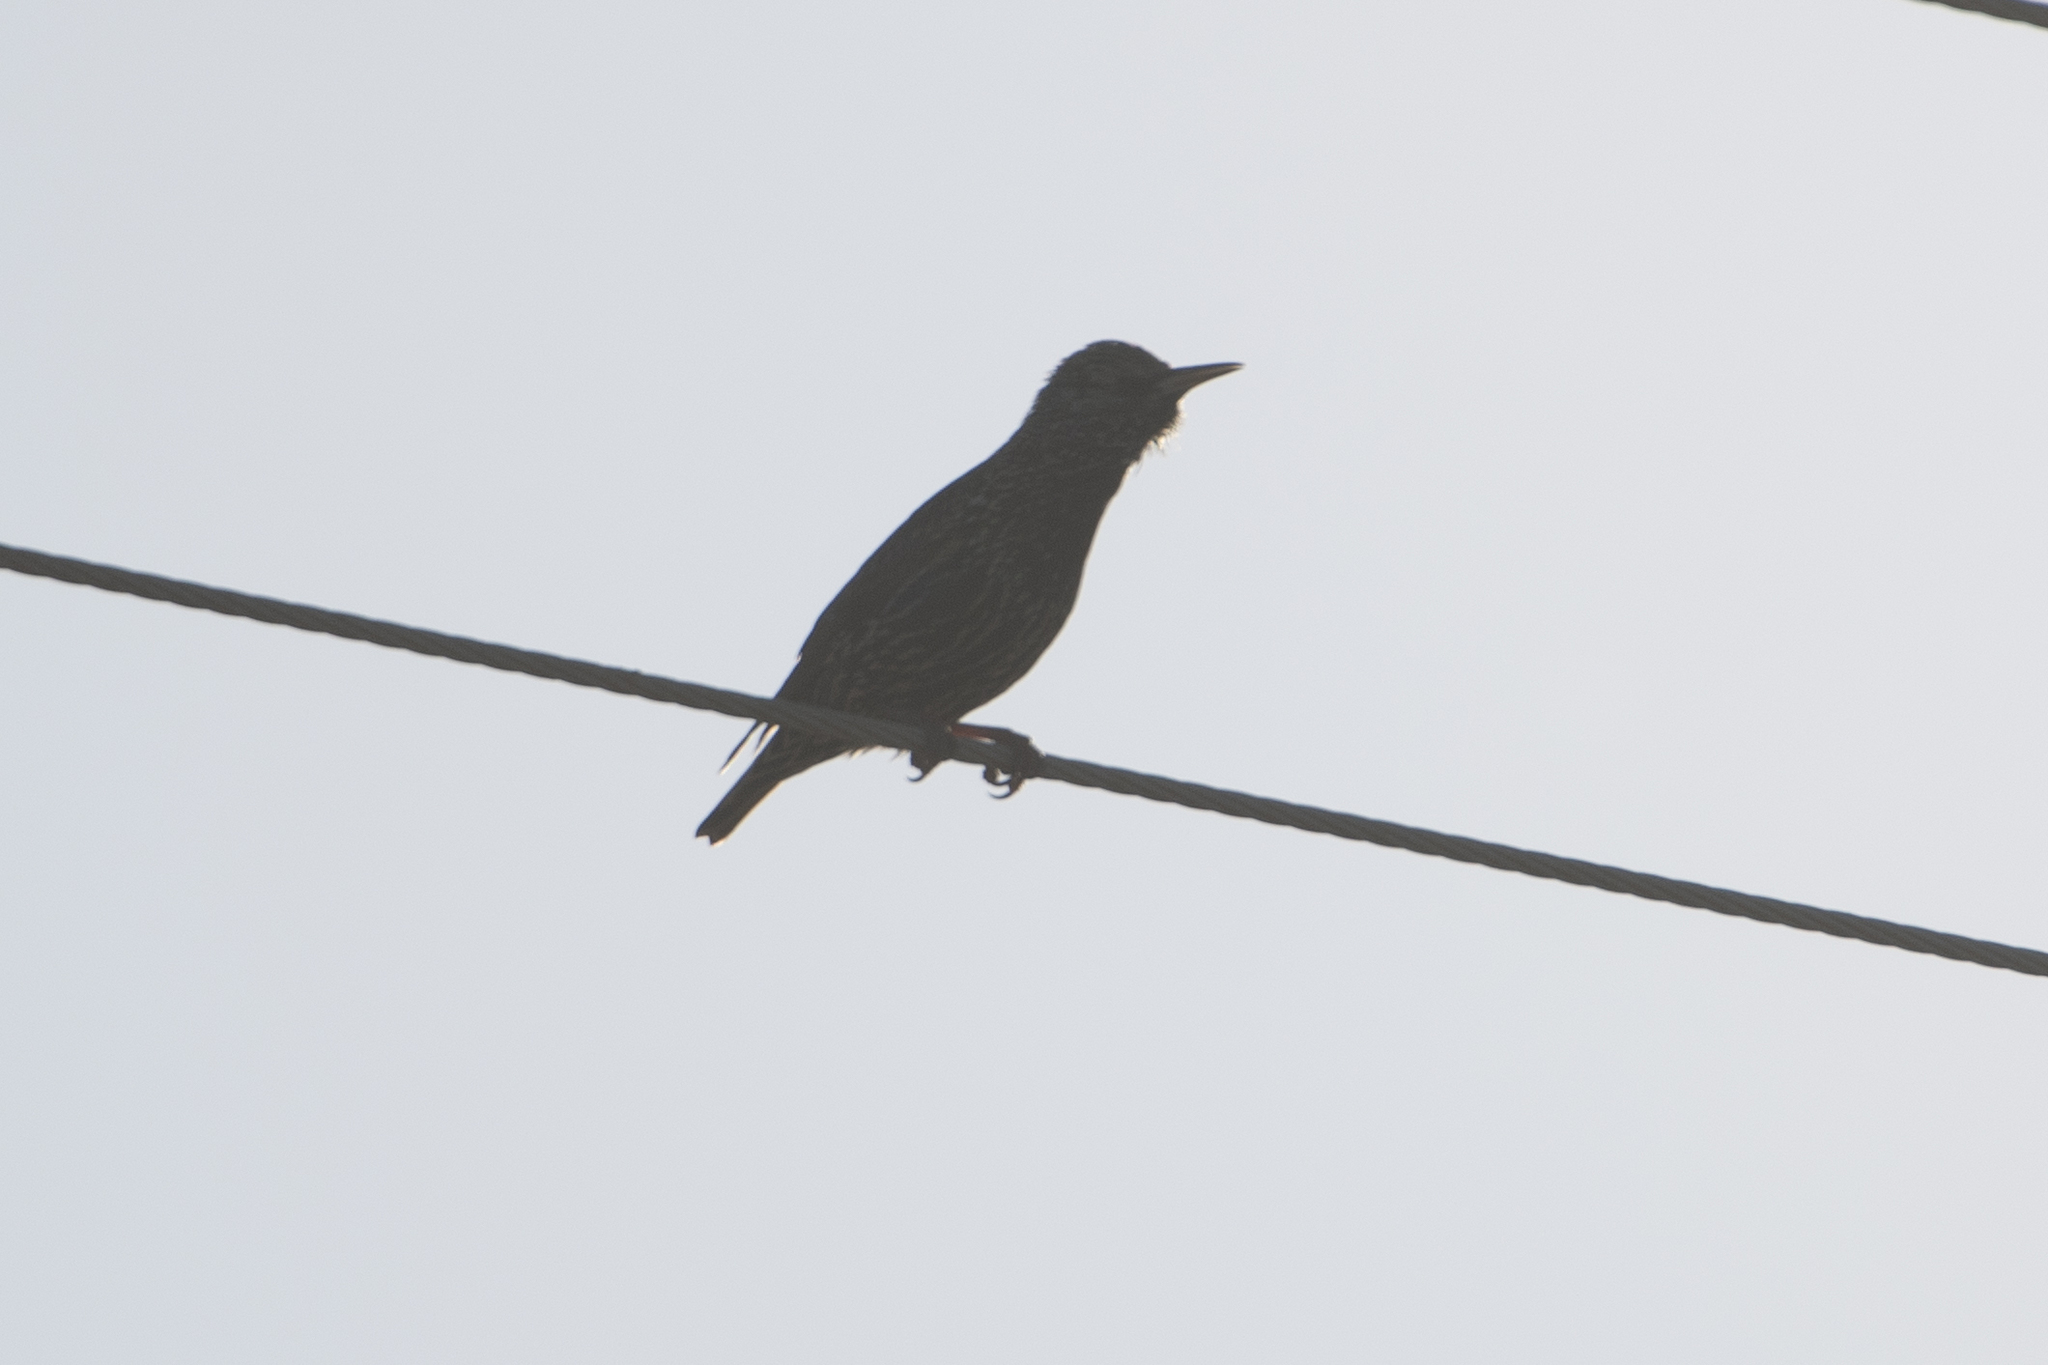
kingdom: Animalia
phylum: Chordata
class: Aves
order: Passeriformes
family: Sturnidae
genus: Sturnus
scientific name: Sturnus vulgaris
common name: Common starling
